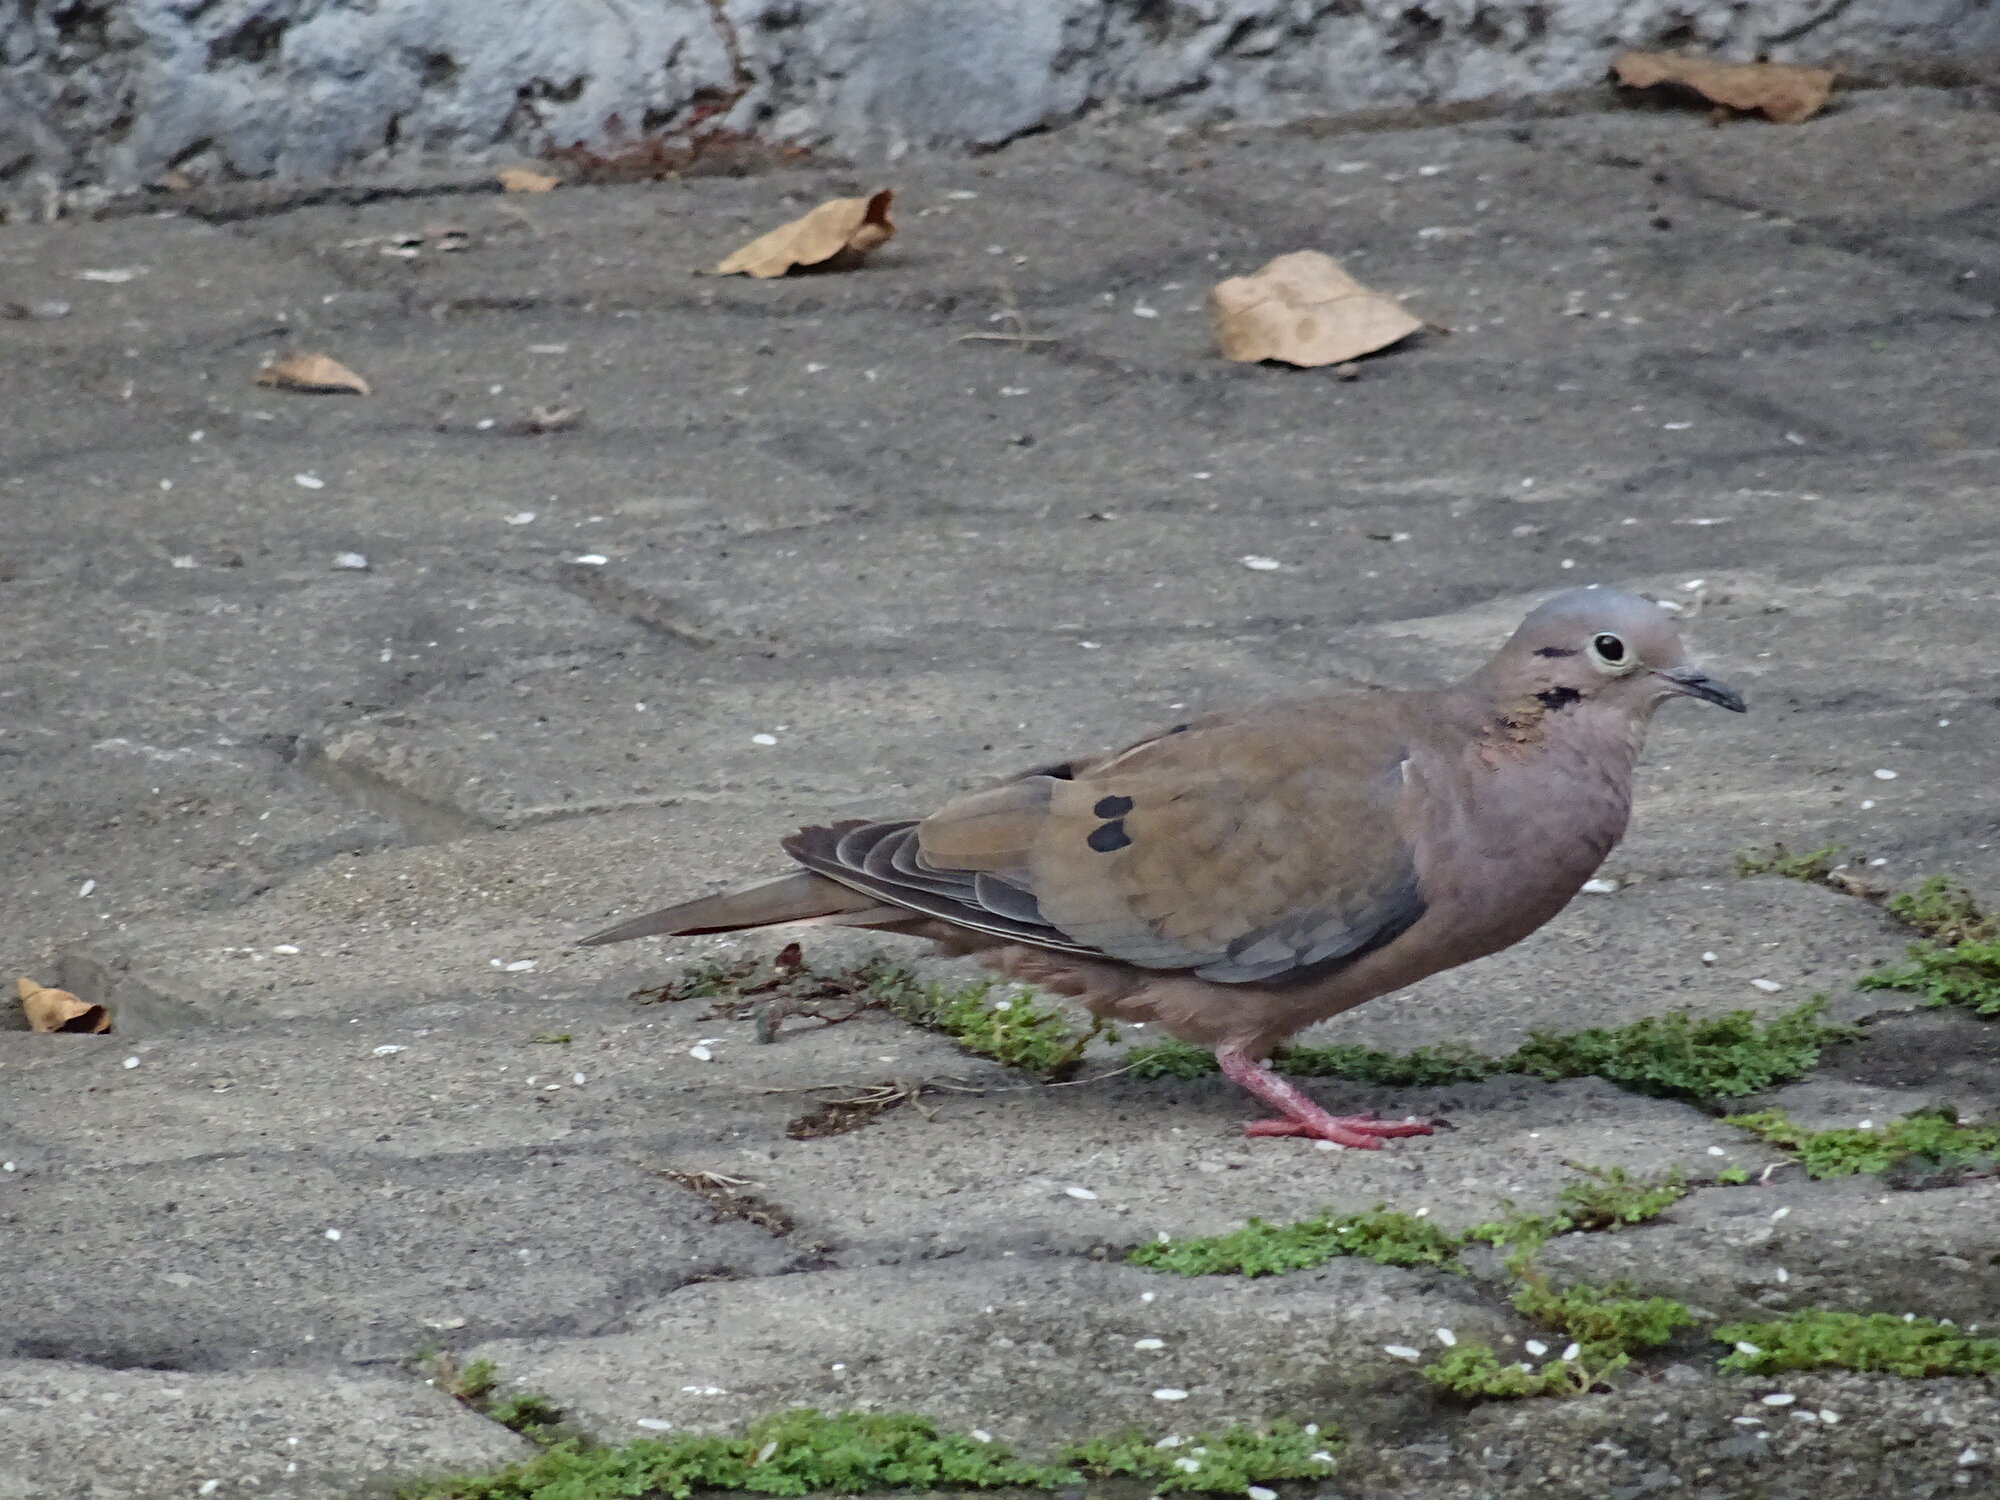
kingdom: Animalia
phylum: Chordata
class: Aves
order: Columbiformes
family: Columbidae
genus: Zenaida
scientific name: Zenaida auriculata
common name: Eared dove
